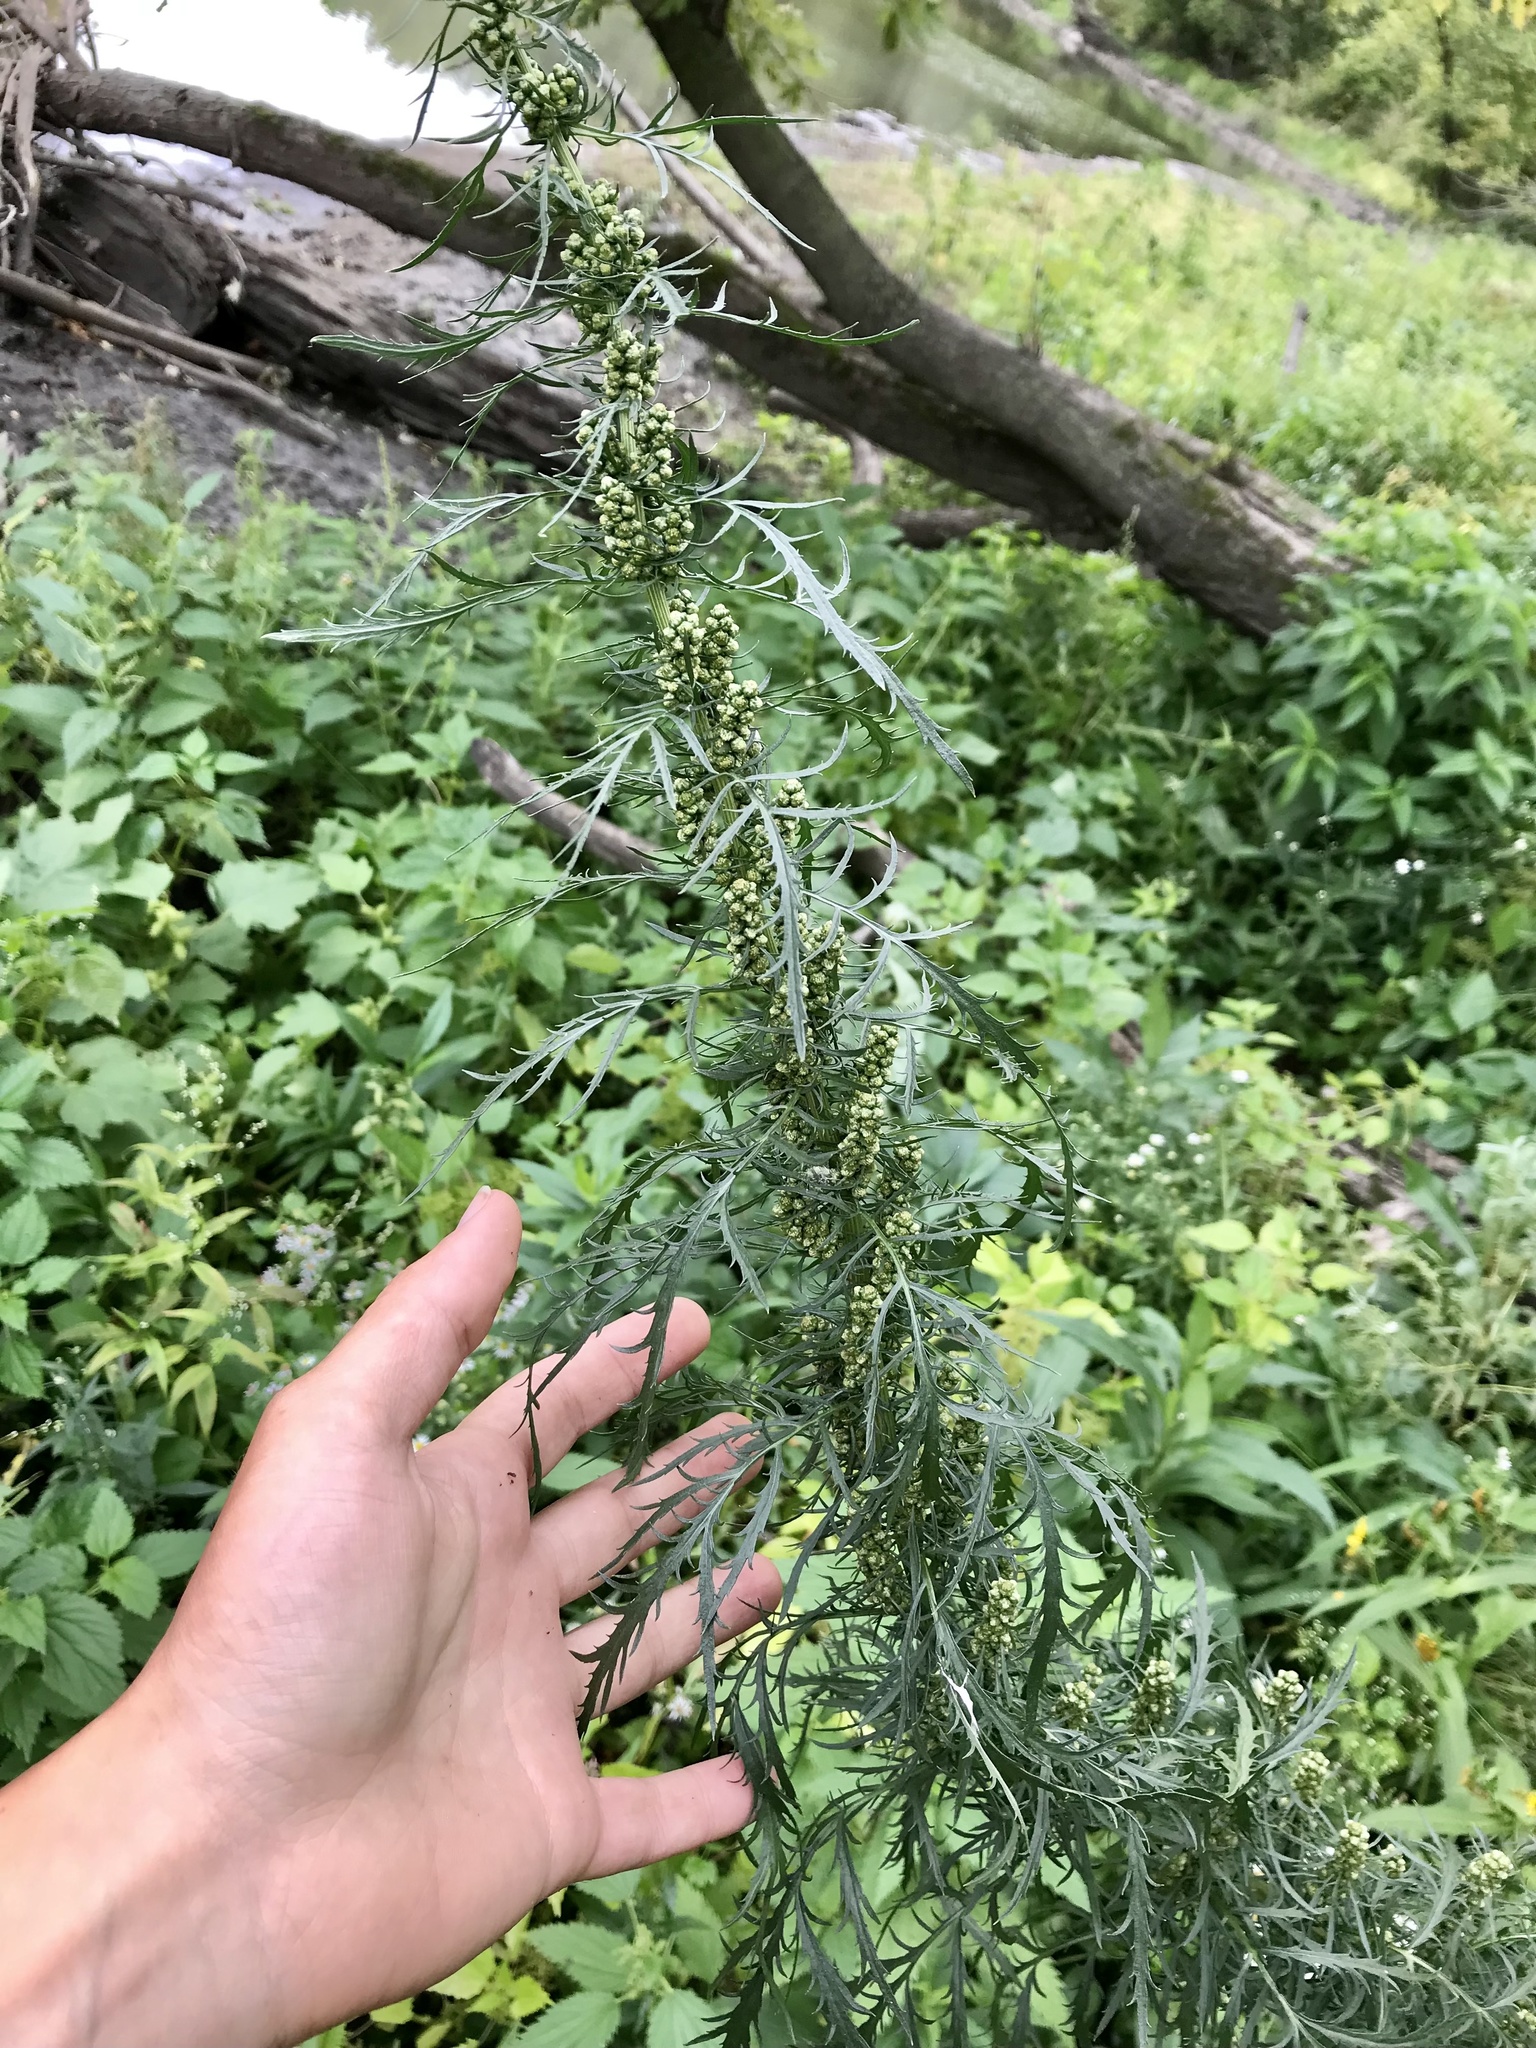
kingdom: Plantae
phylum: Tracheophyta
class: Magnoliopsida
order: Asterales
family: Asteraceae
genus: Artemisia
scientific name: Artemisia biennis
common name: Biennial wormwood
